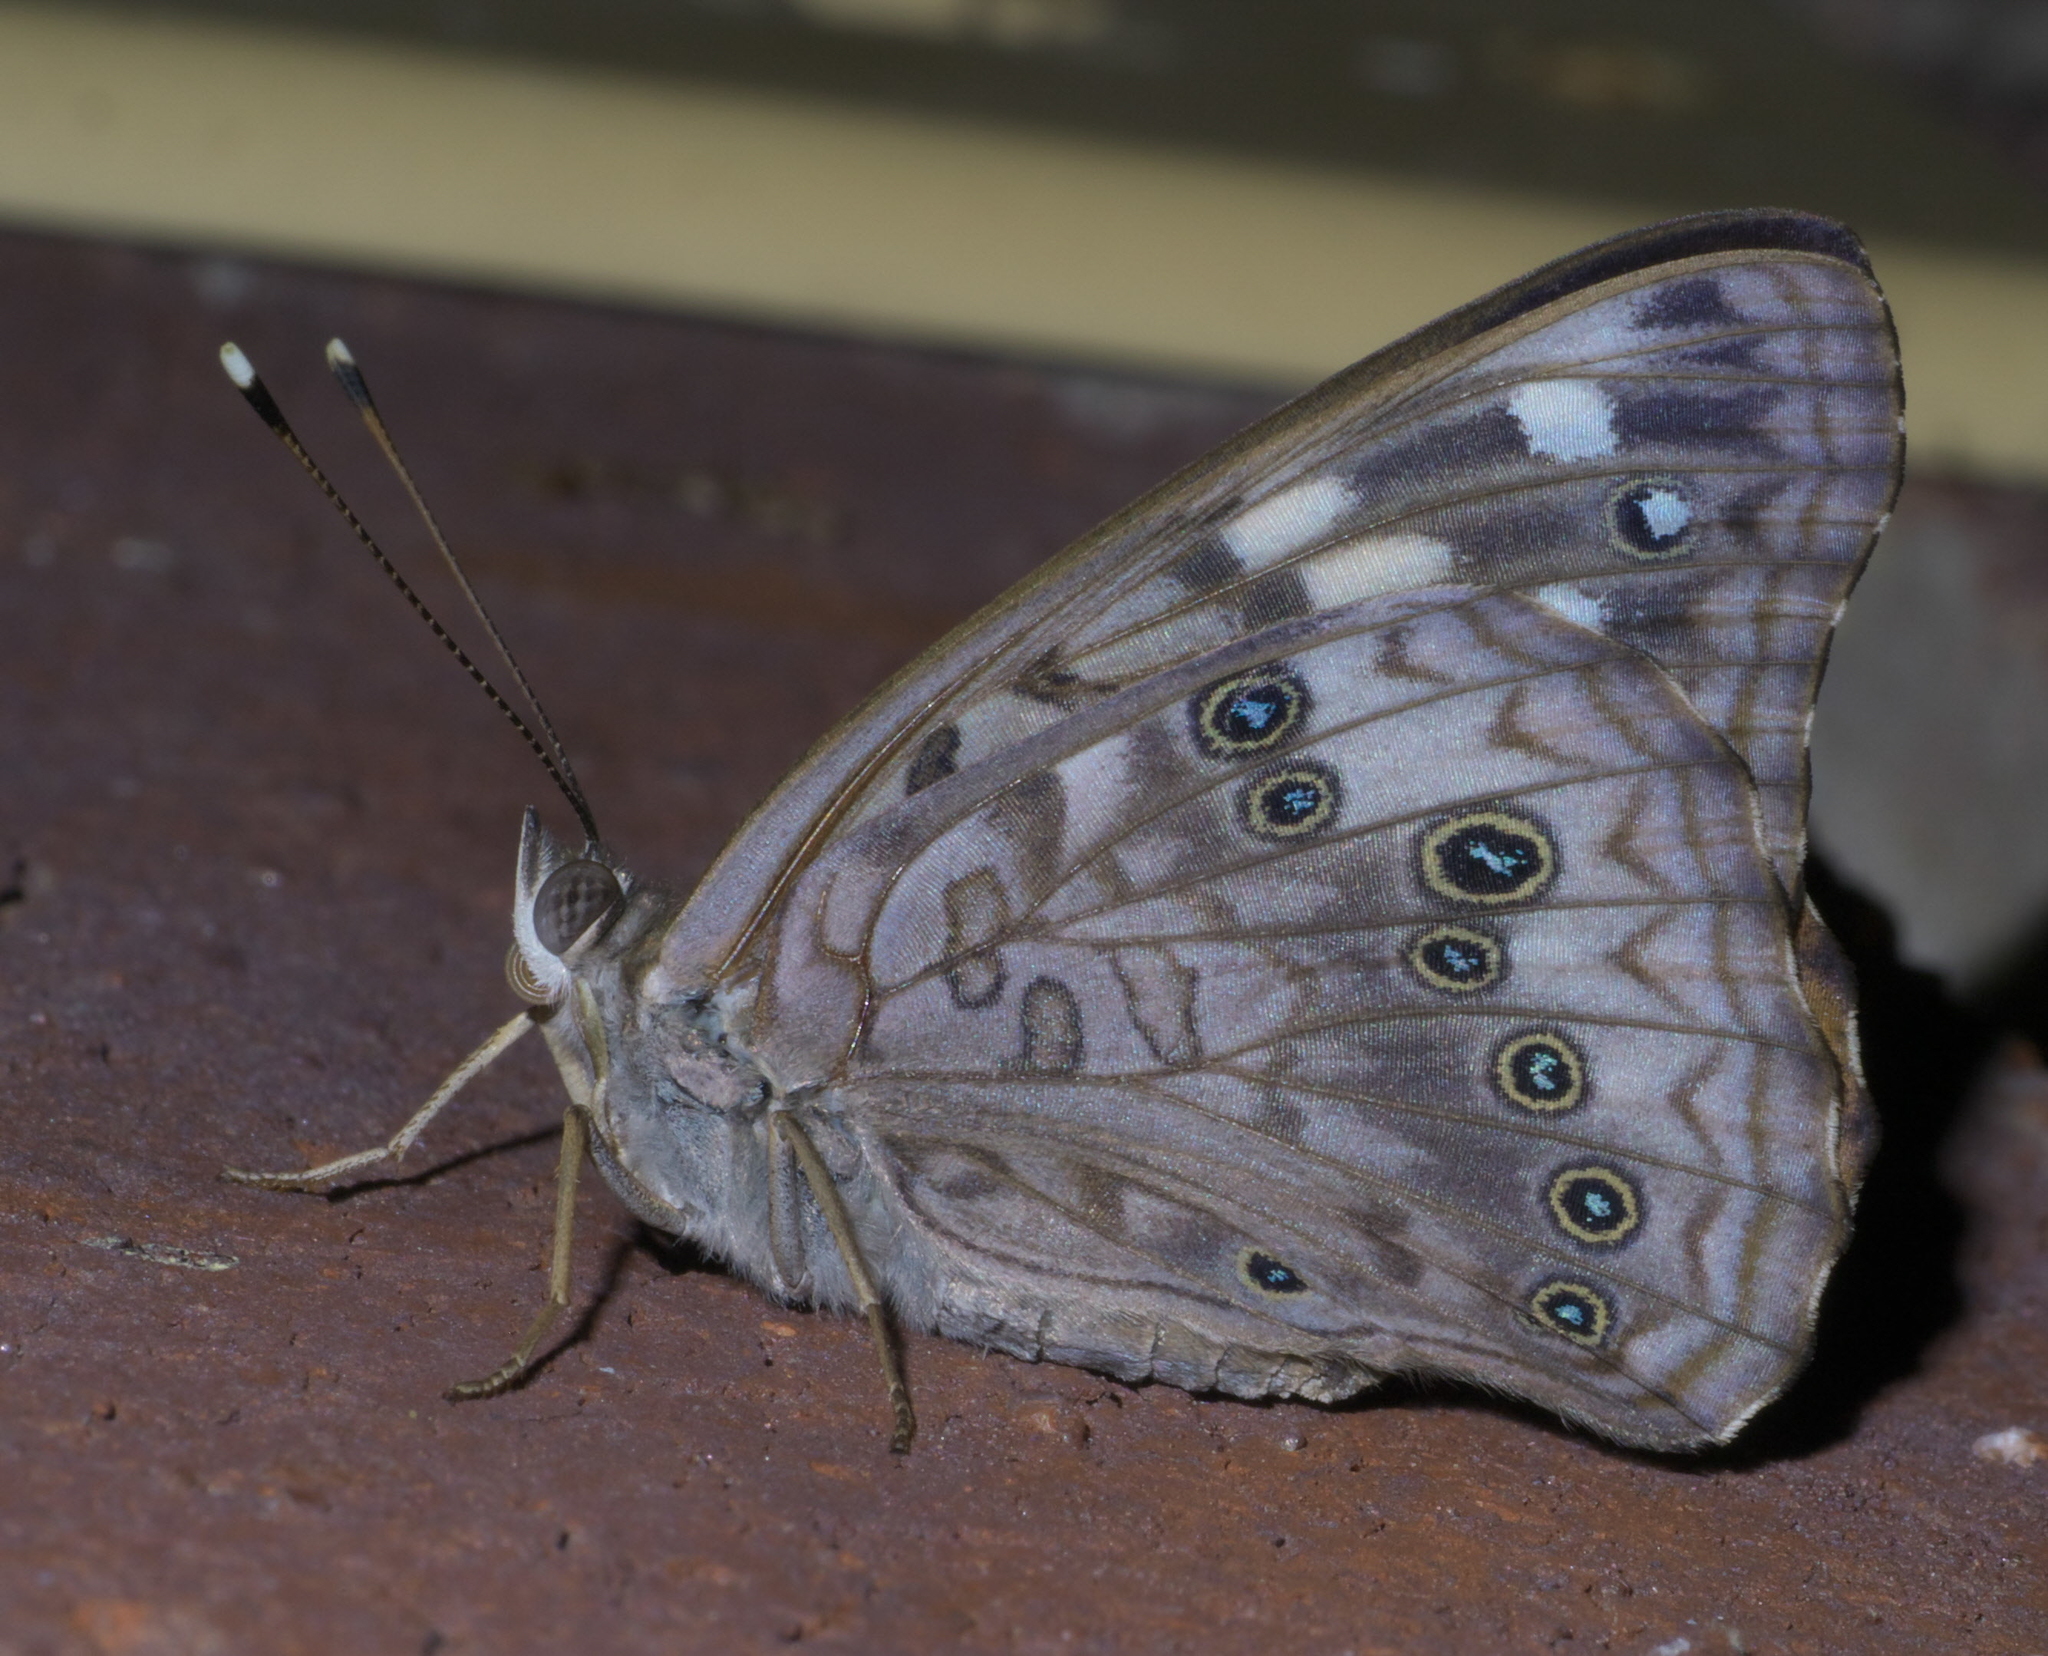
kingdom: Animalia
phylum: Arthropoda
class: Insecta
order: Lepidoptera
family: Nymphalidae
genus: Asterocampa
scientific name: Asterocampa celtis
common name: Hackberry emperor
